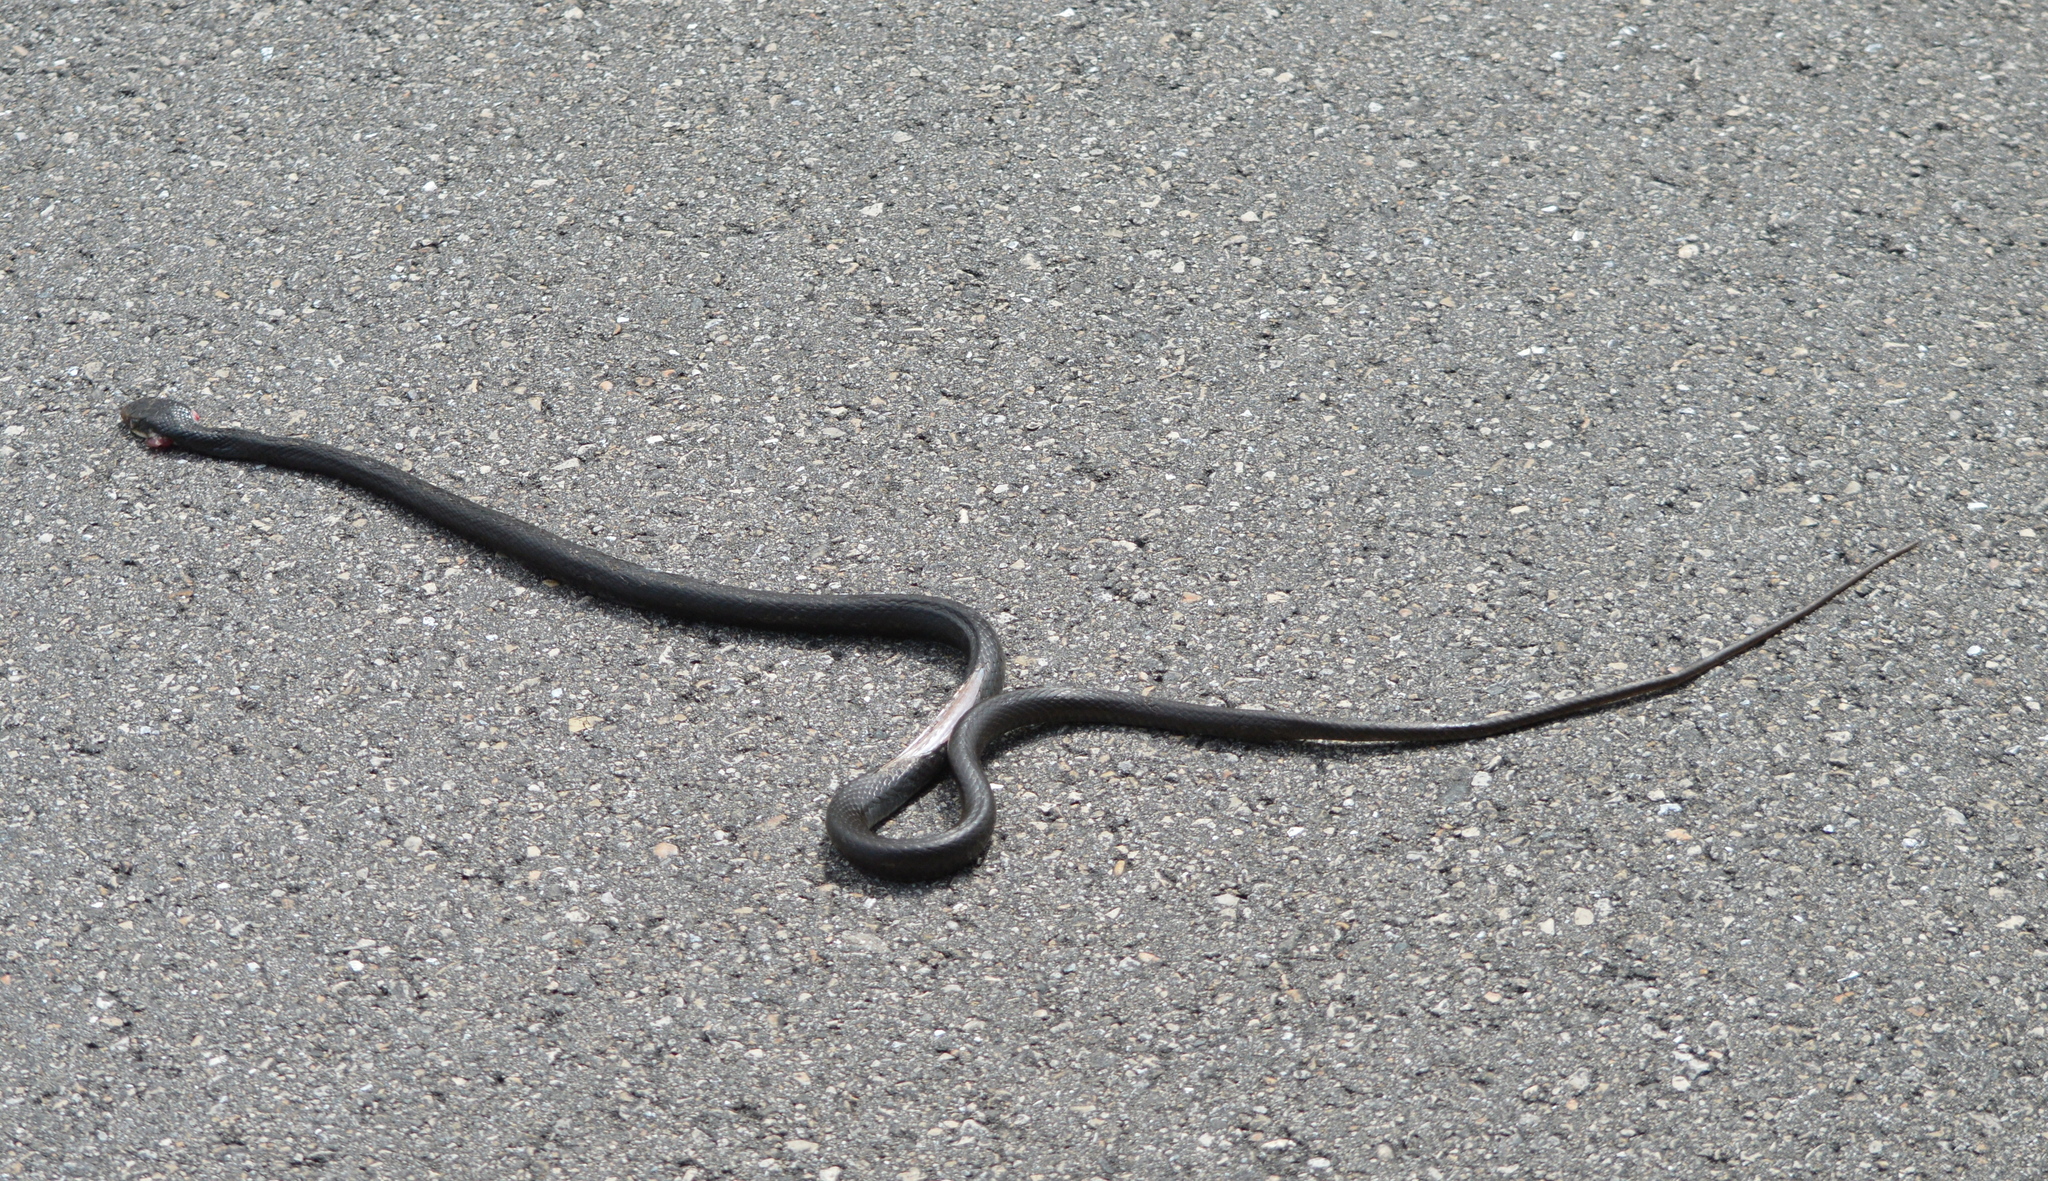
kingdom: Animalia
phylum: Chordata
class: Squamata
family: Colubridae
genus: Coluber
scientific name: Coluber constrictor
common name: Eastern racer
